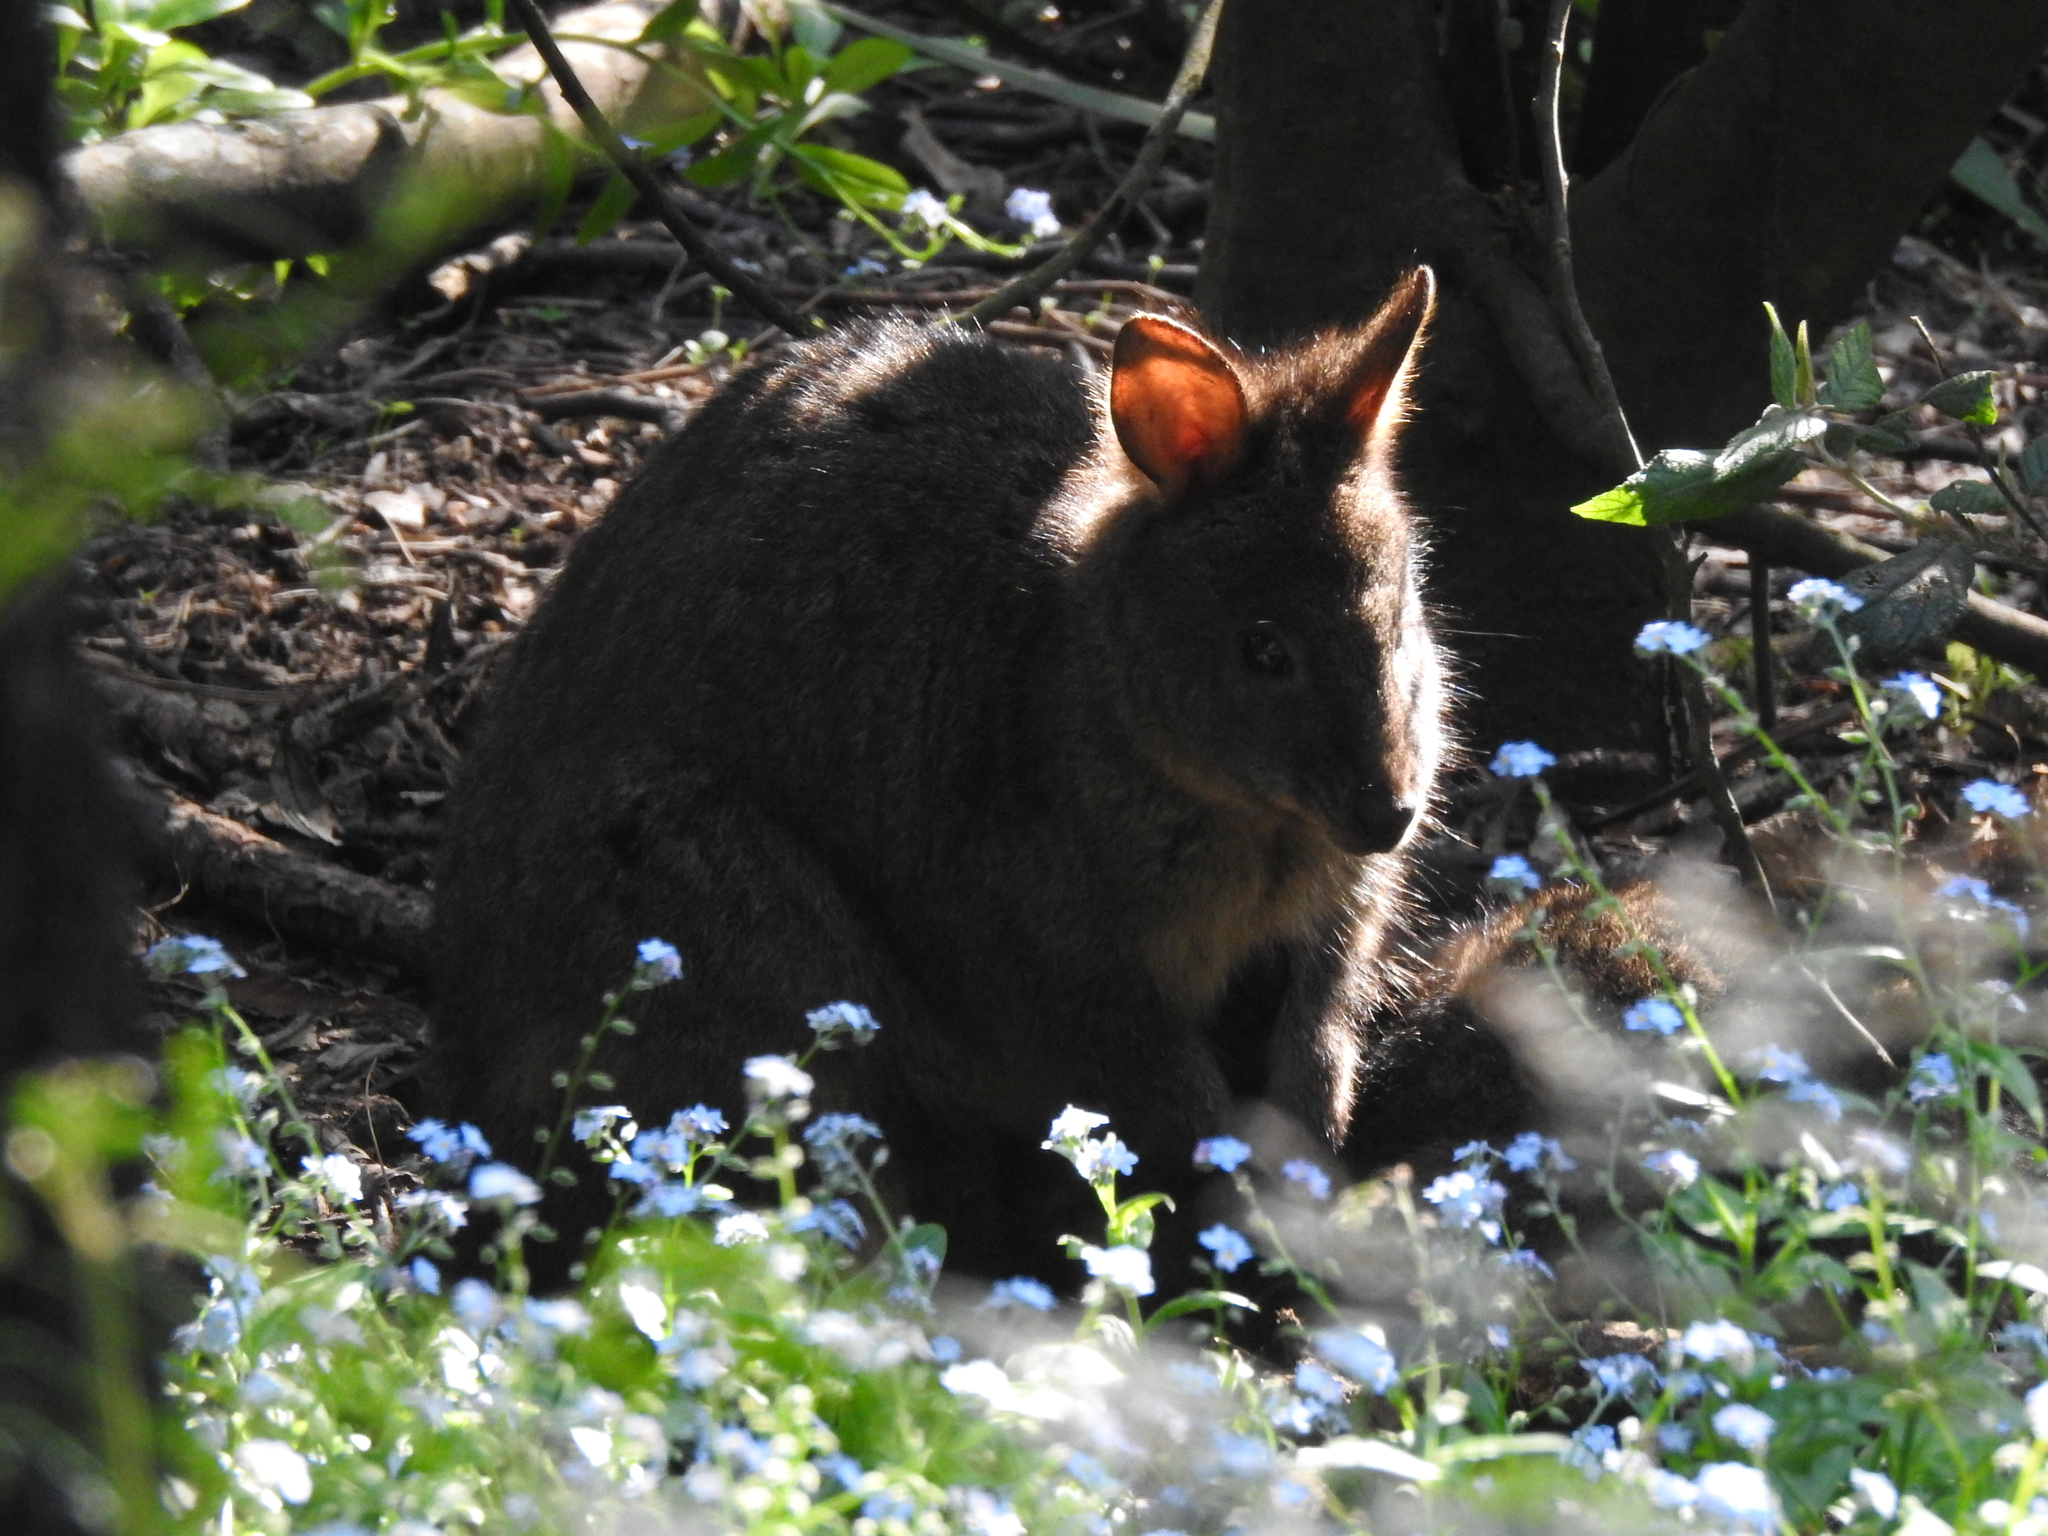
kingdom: Animalia
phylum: Chordata
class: Mammalia
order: Diprotodontia
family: Macropodidae
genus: Thylogale
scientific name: Thylogale billardierii
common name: Tasmanian pademelon
